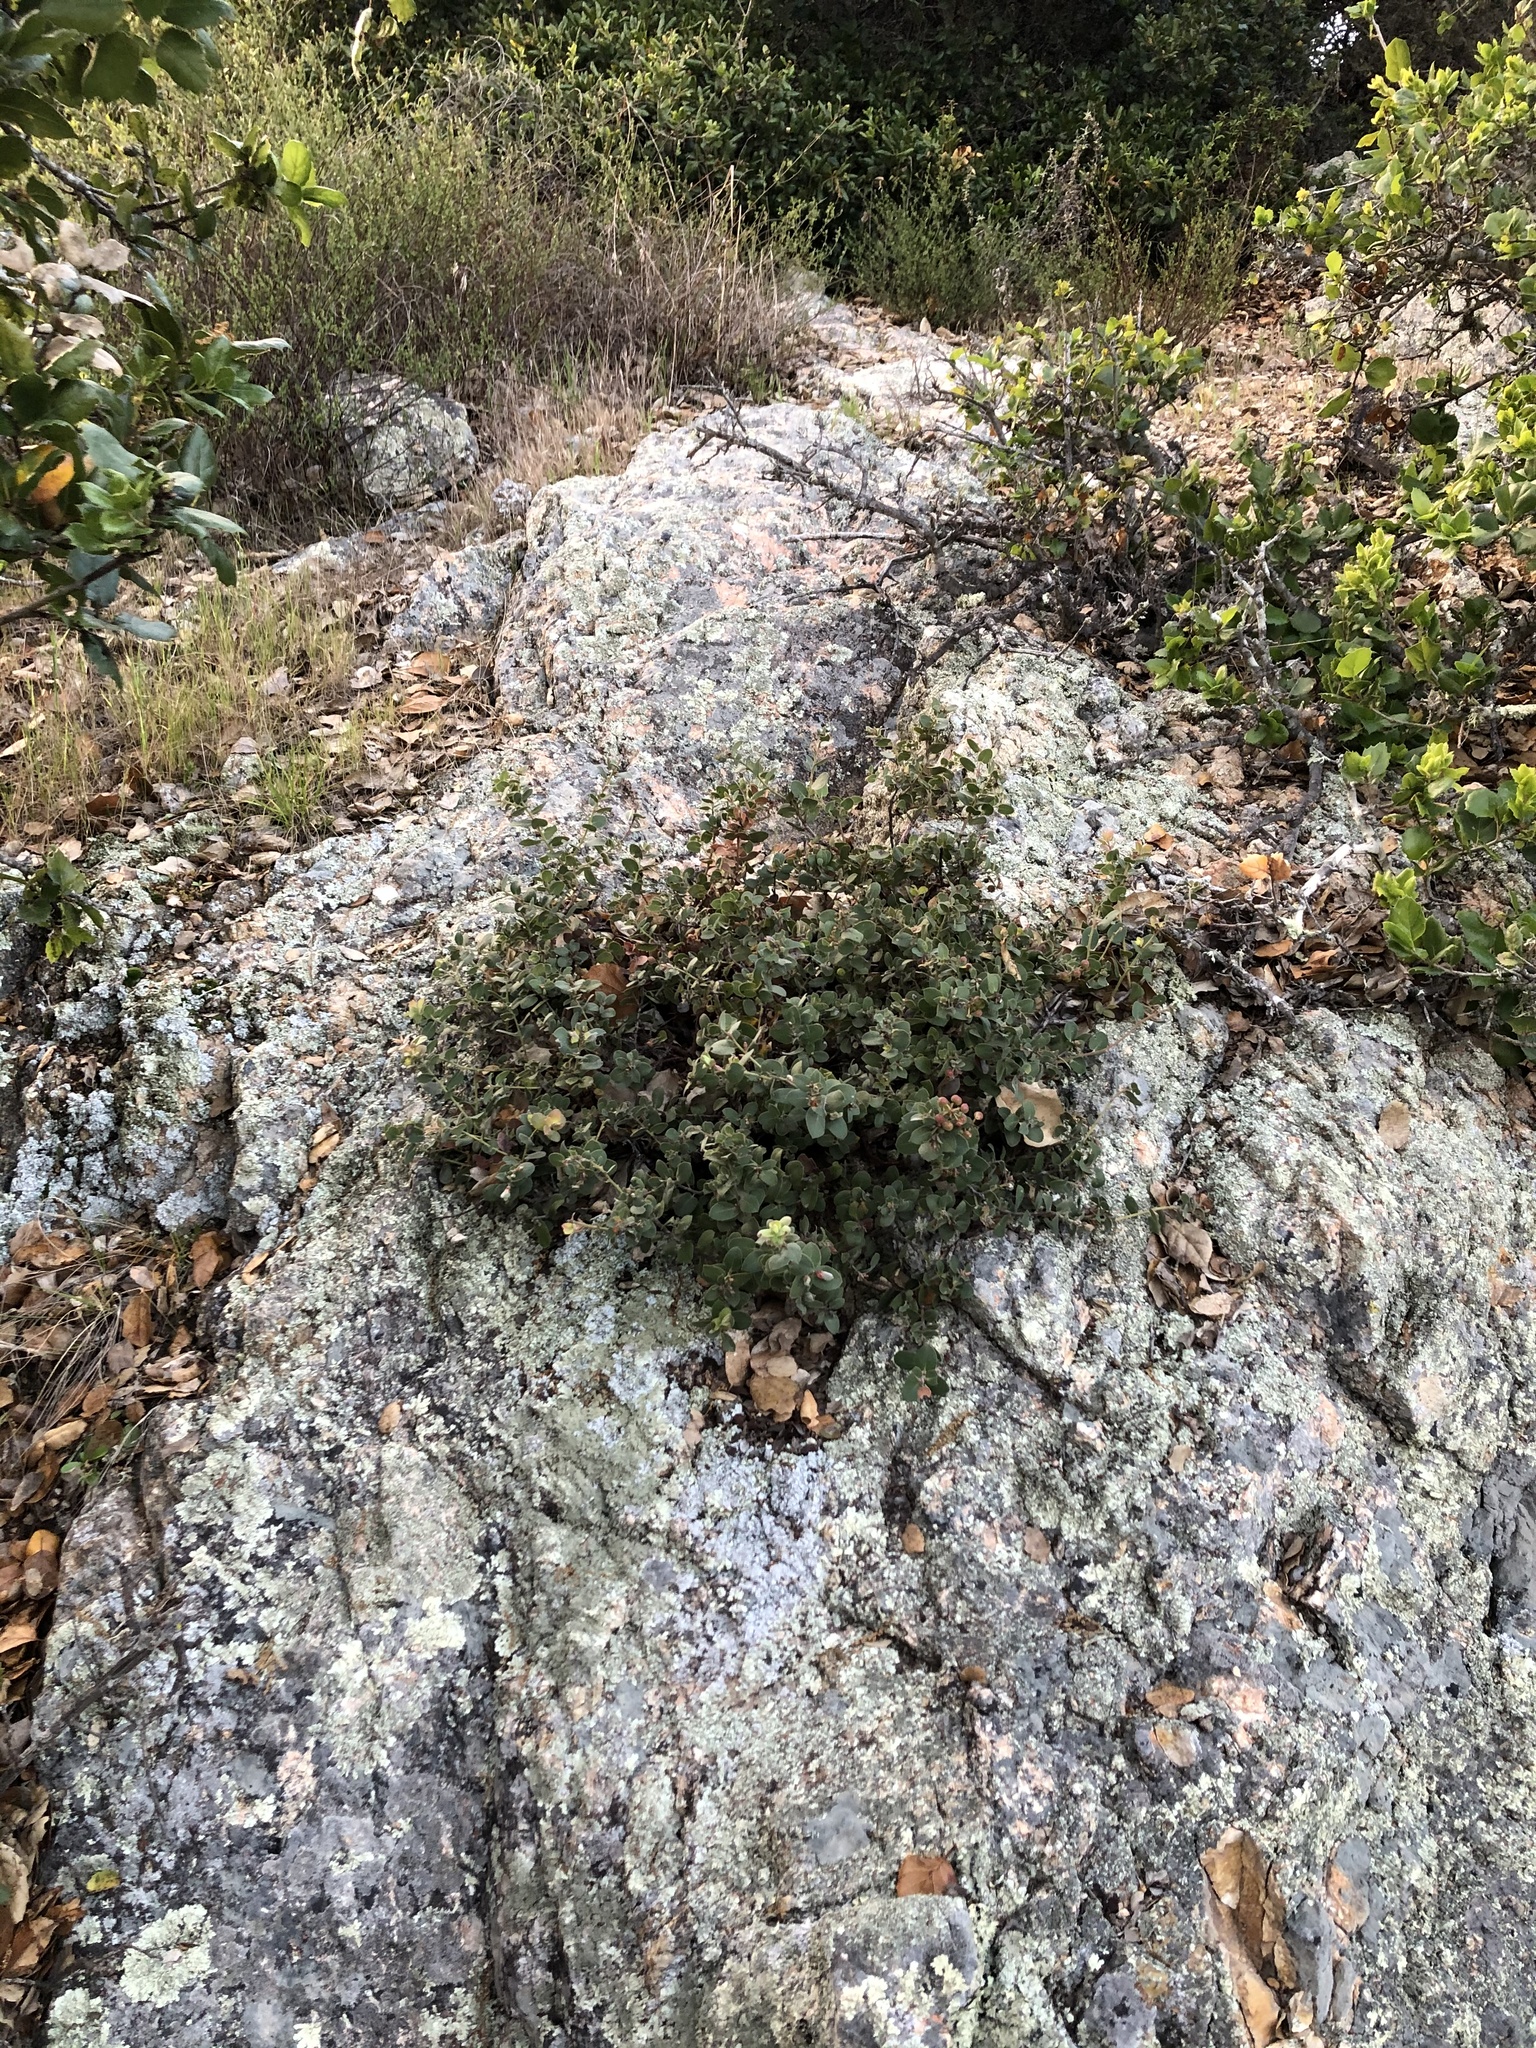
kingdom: Plantae
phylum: Tracheophyta
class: Magnoliopsida
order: Ericales
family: Ericaceae
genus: Arctostaphylos
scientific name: Arctostaphylos morroensis
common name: Morro manzanita
